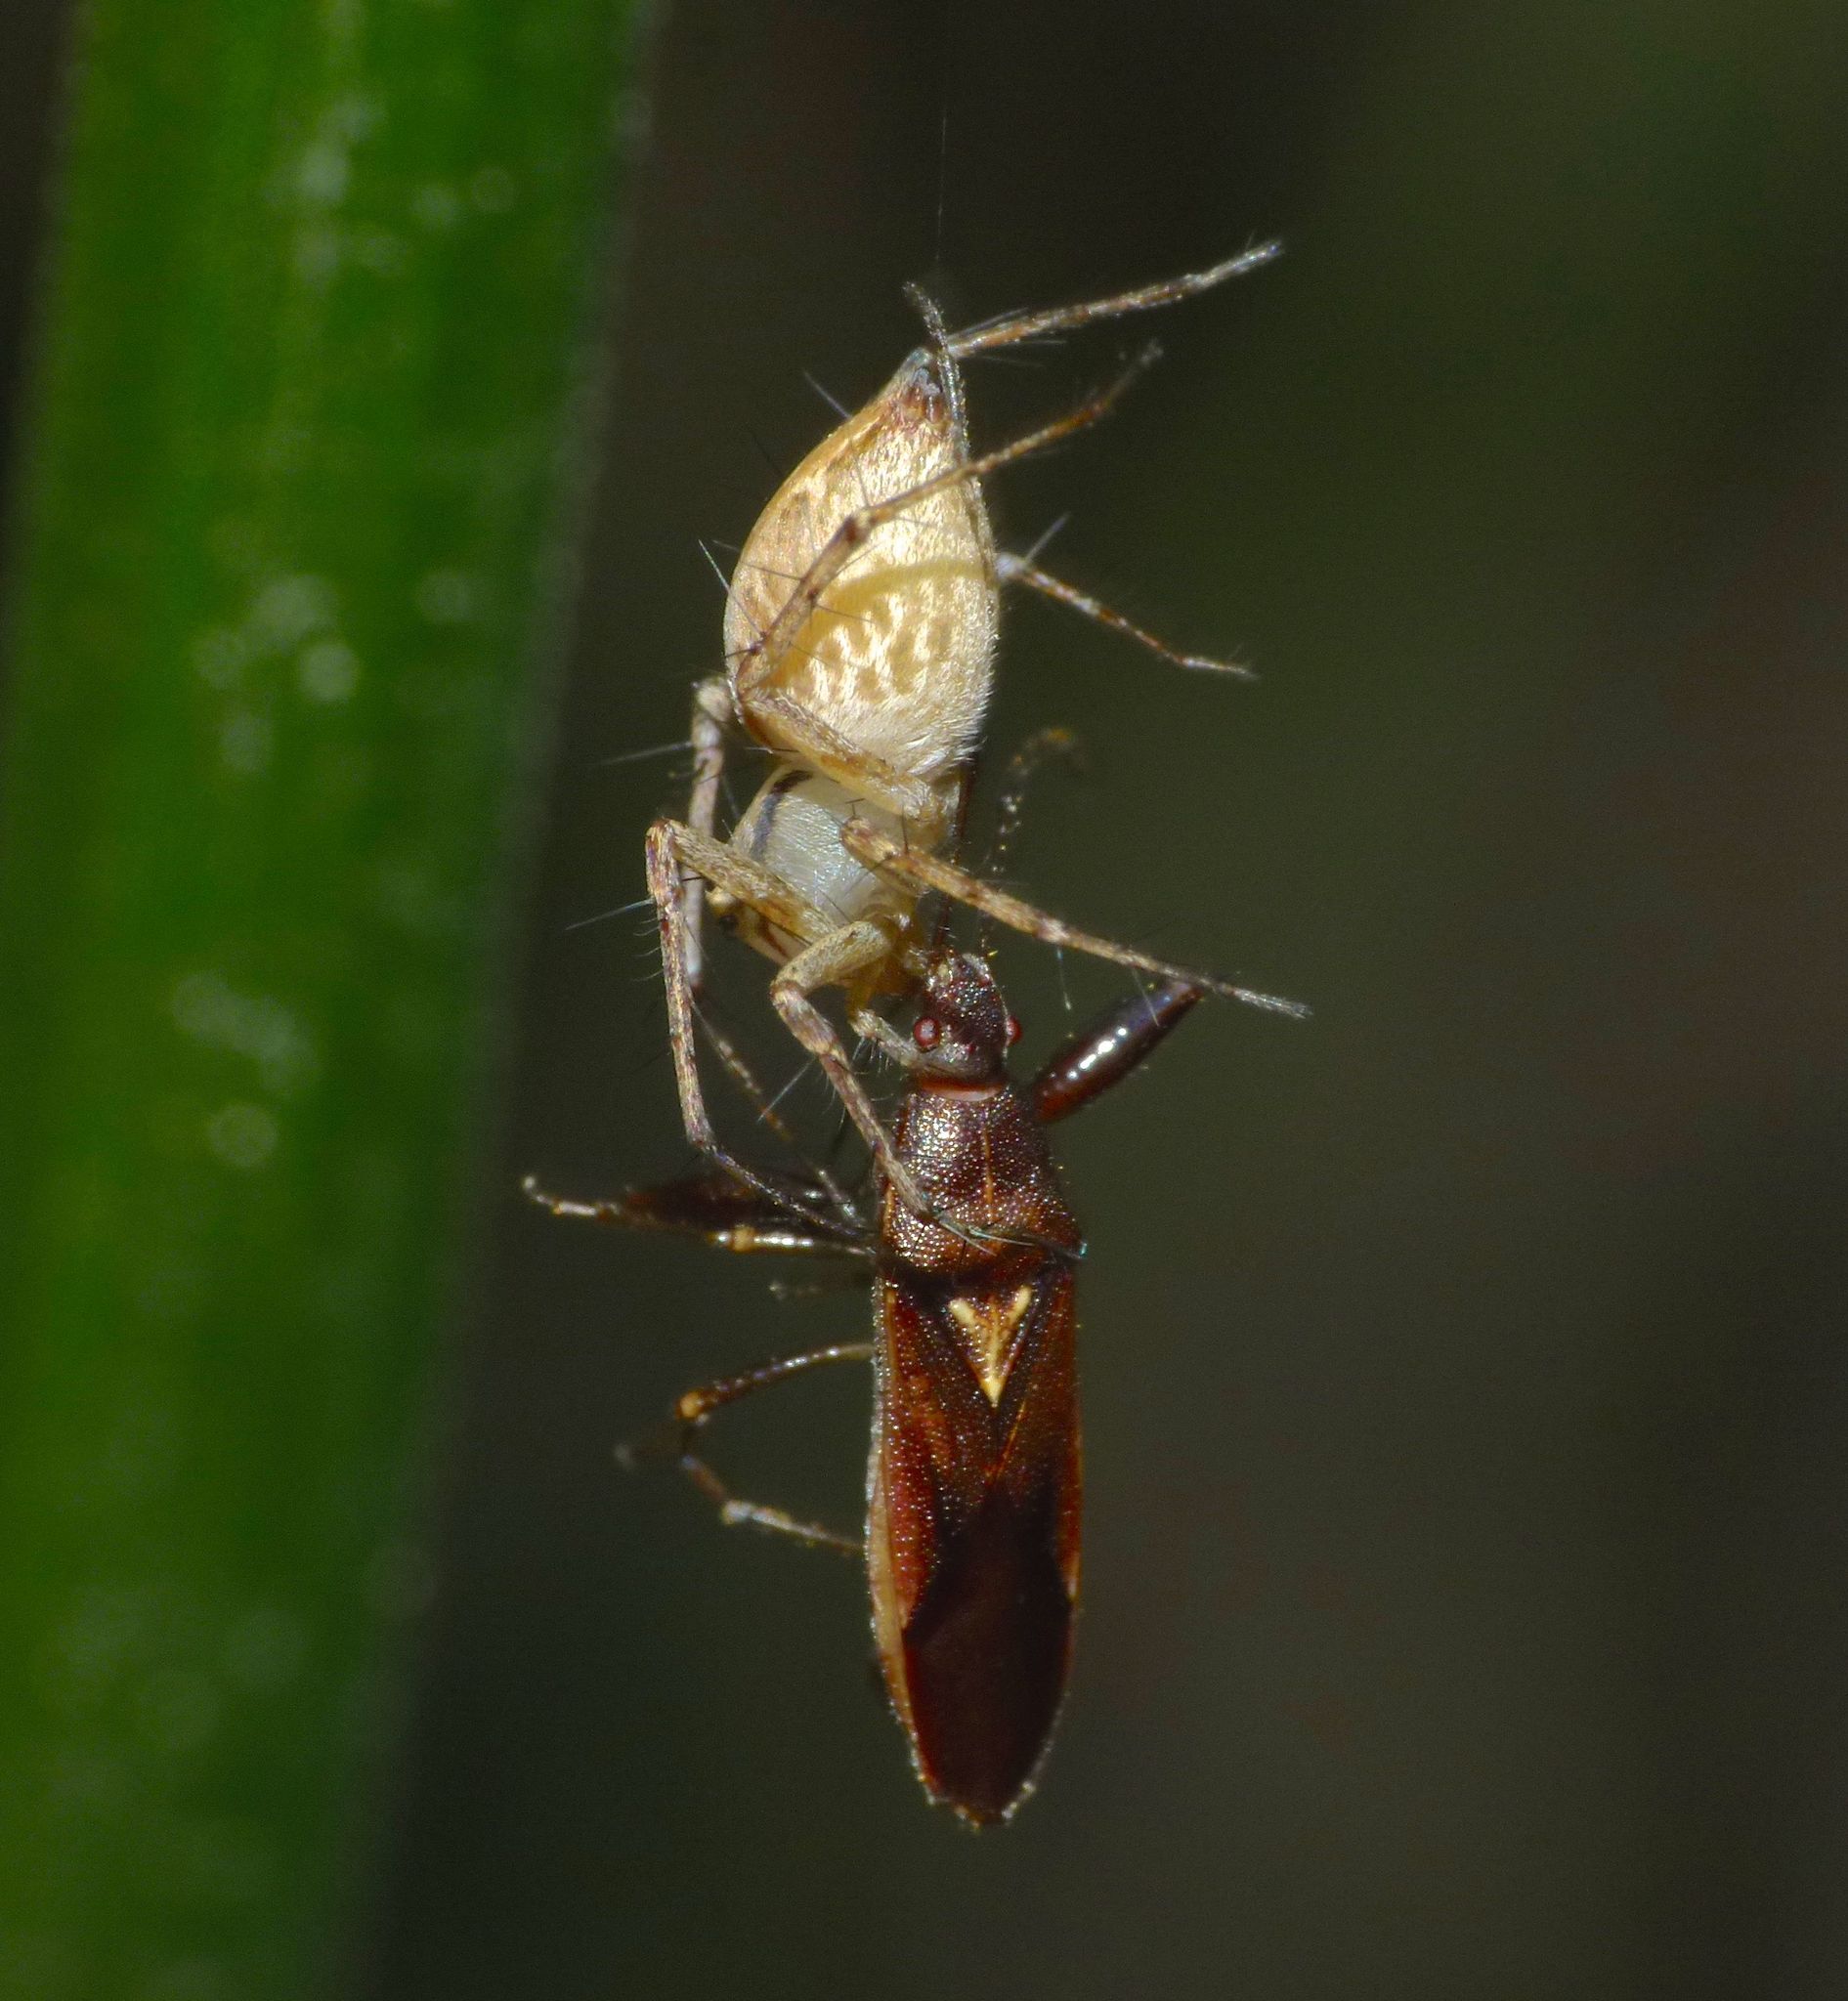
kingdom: Animalia
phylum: Arthropoda
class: Arachnida
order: Araneae
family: Oxyopidae
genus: Oxyopes
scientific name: Oxyopes elegans
